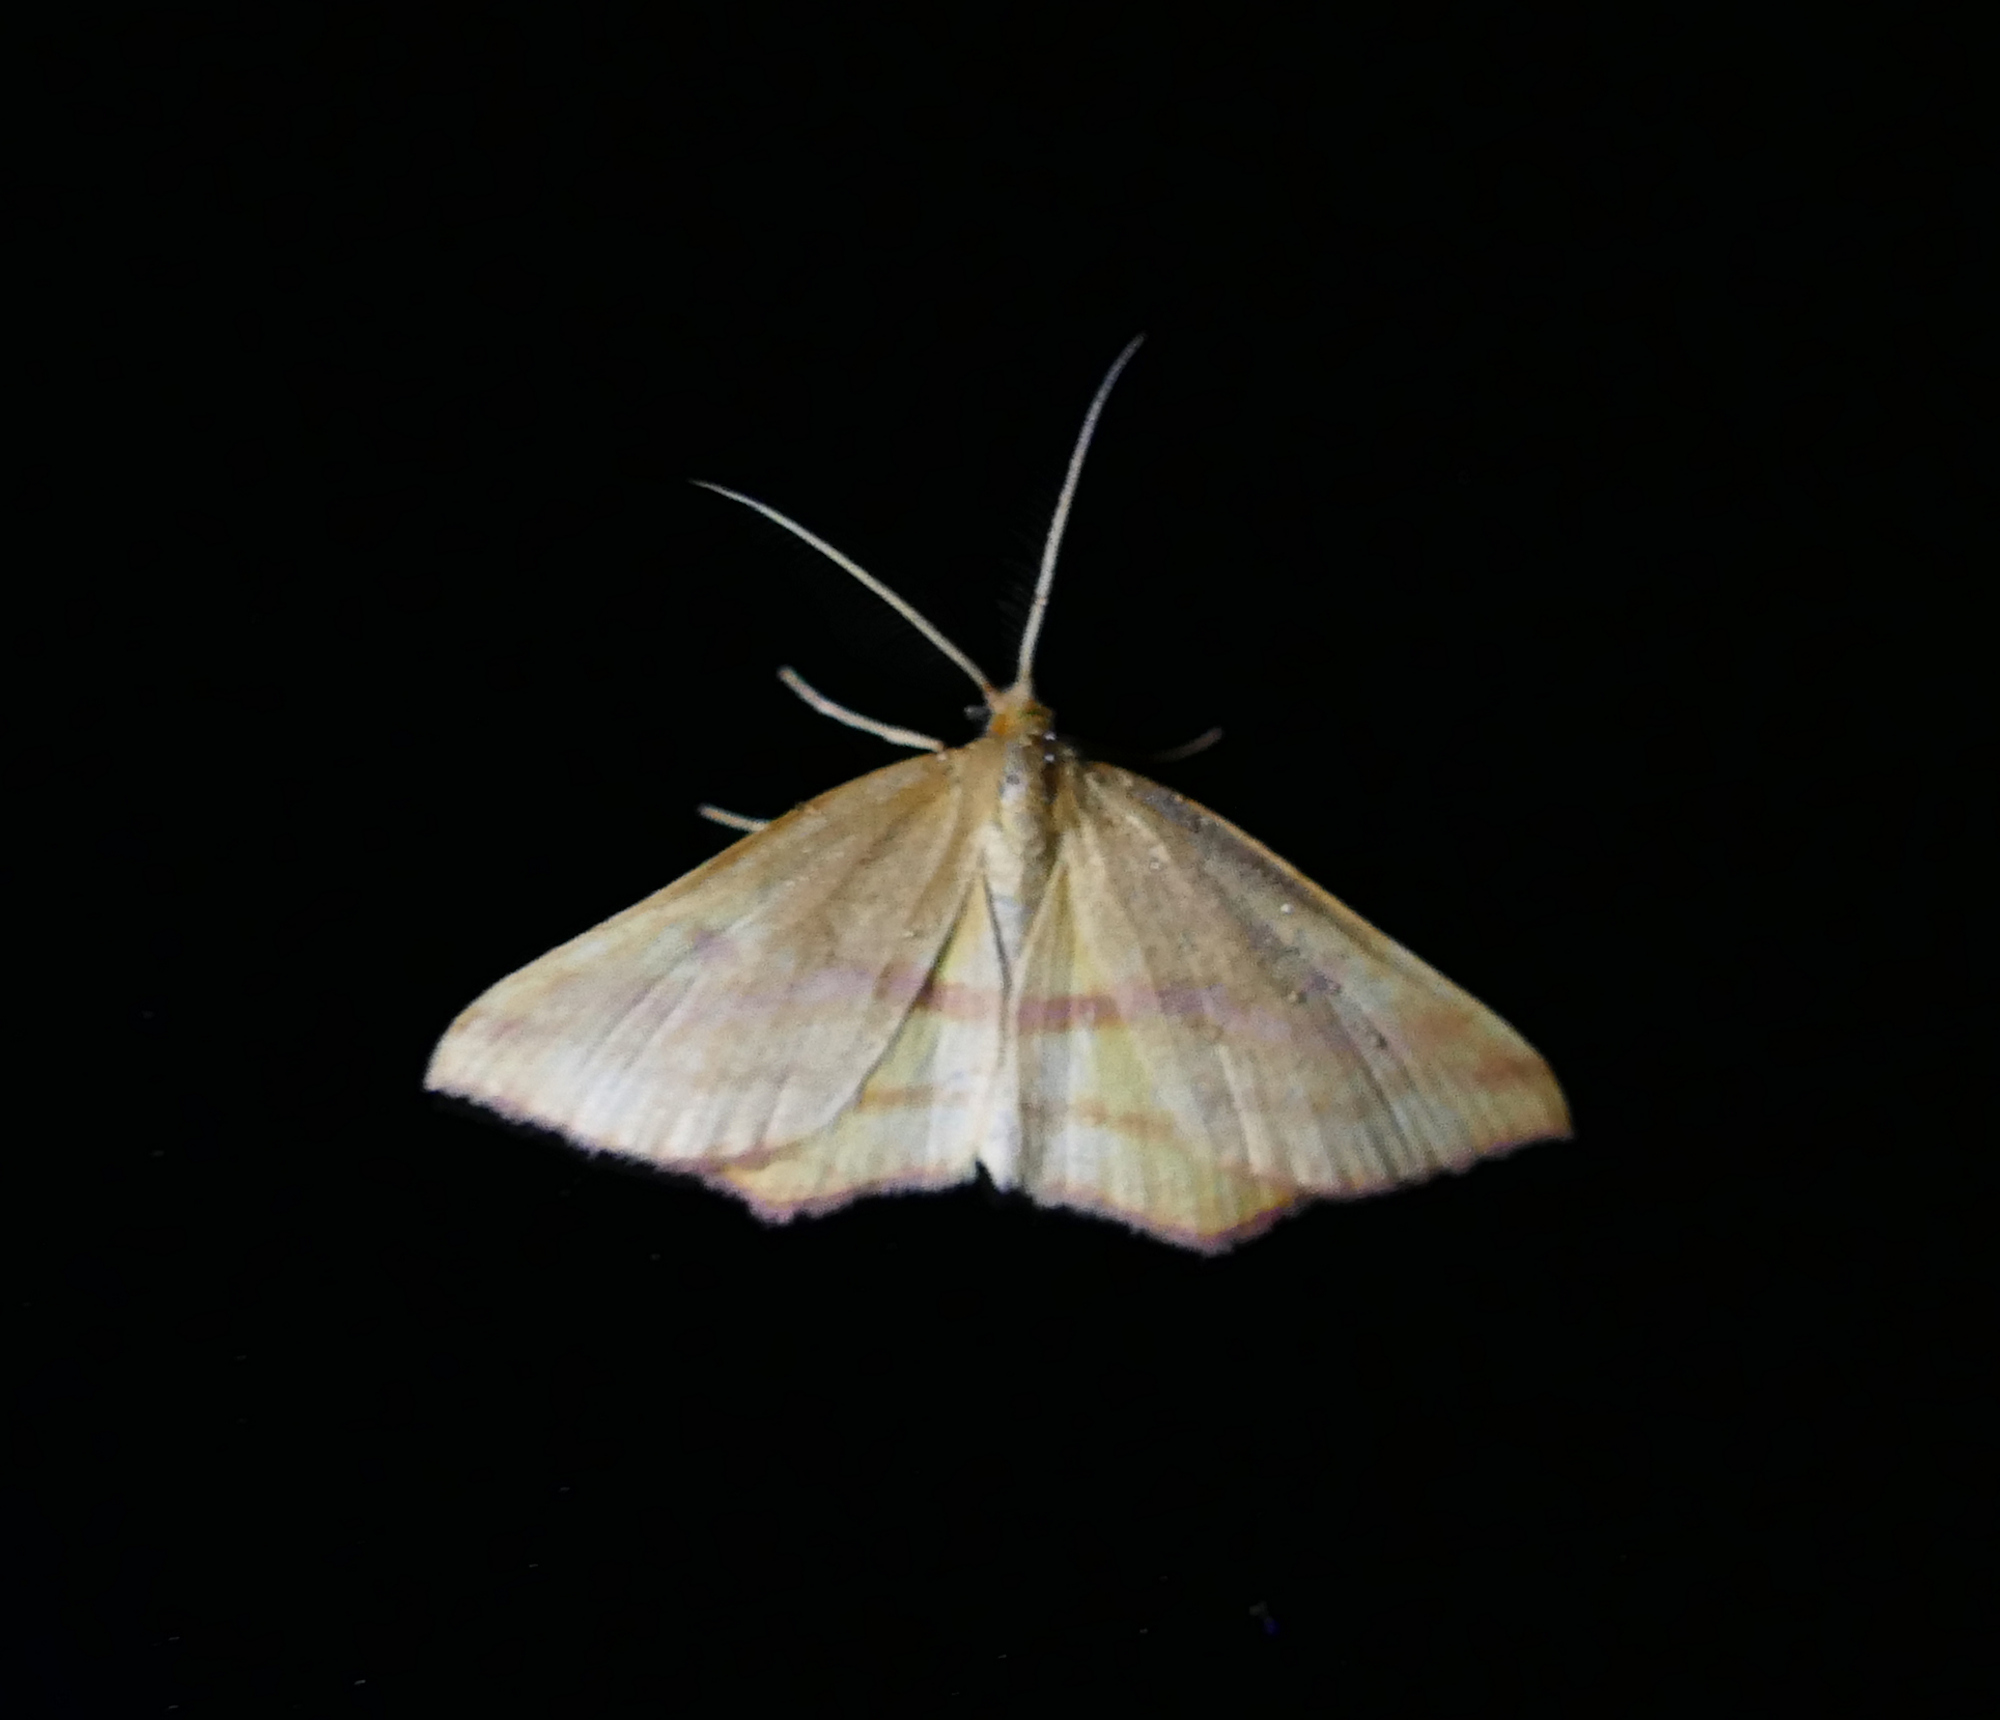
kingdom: Animalia
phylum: Arthropoda
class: Insecta
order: Lepidoptera
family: Geometridae
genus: Haematopis
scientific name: Haematopis grataria
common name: Chickweed geometer
